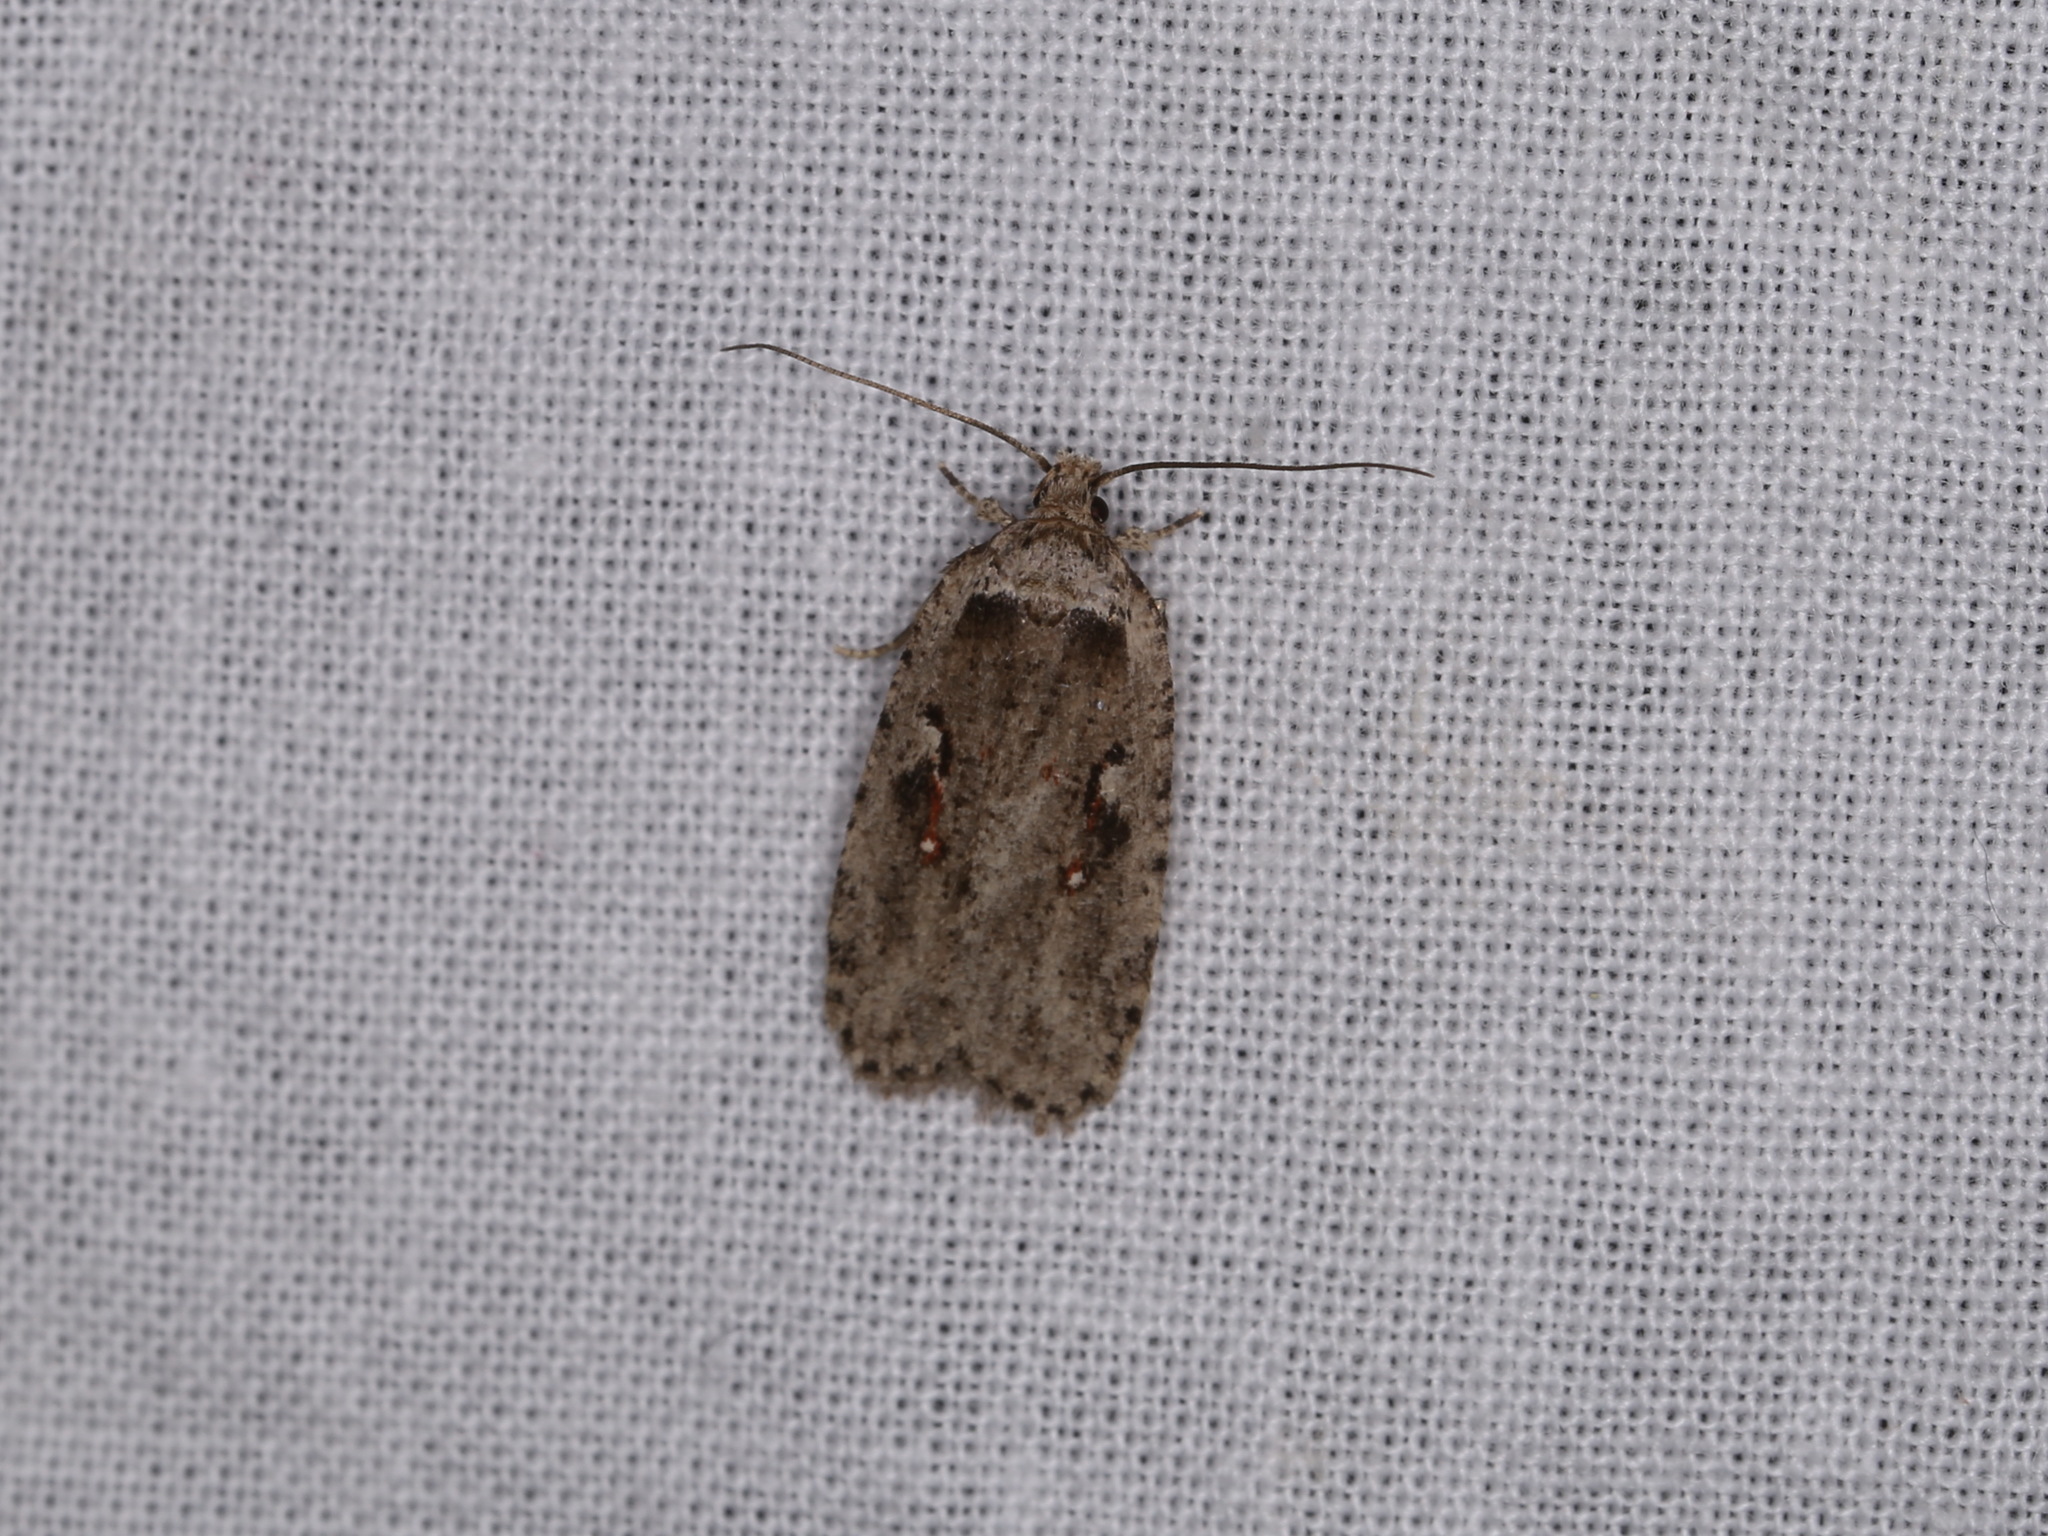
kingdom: Animalia
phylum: Arthropoda
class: Insecta
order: Lepidoptera
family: Depressariidae
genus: Agonopterix
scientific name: Agonopterix ocellana
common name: Red-letter flat-body
